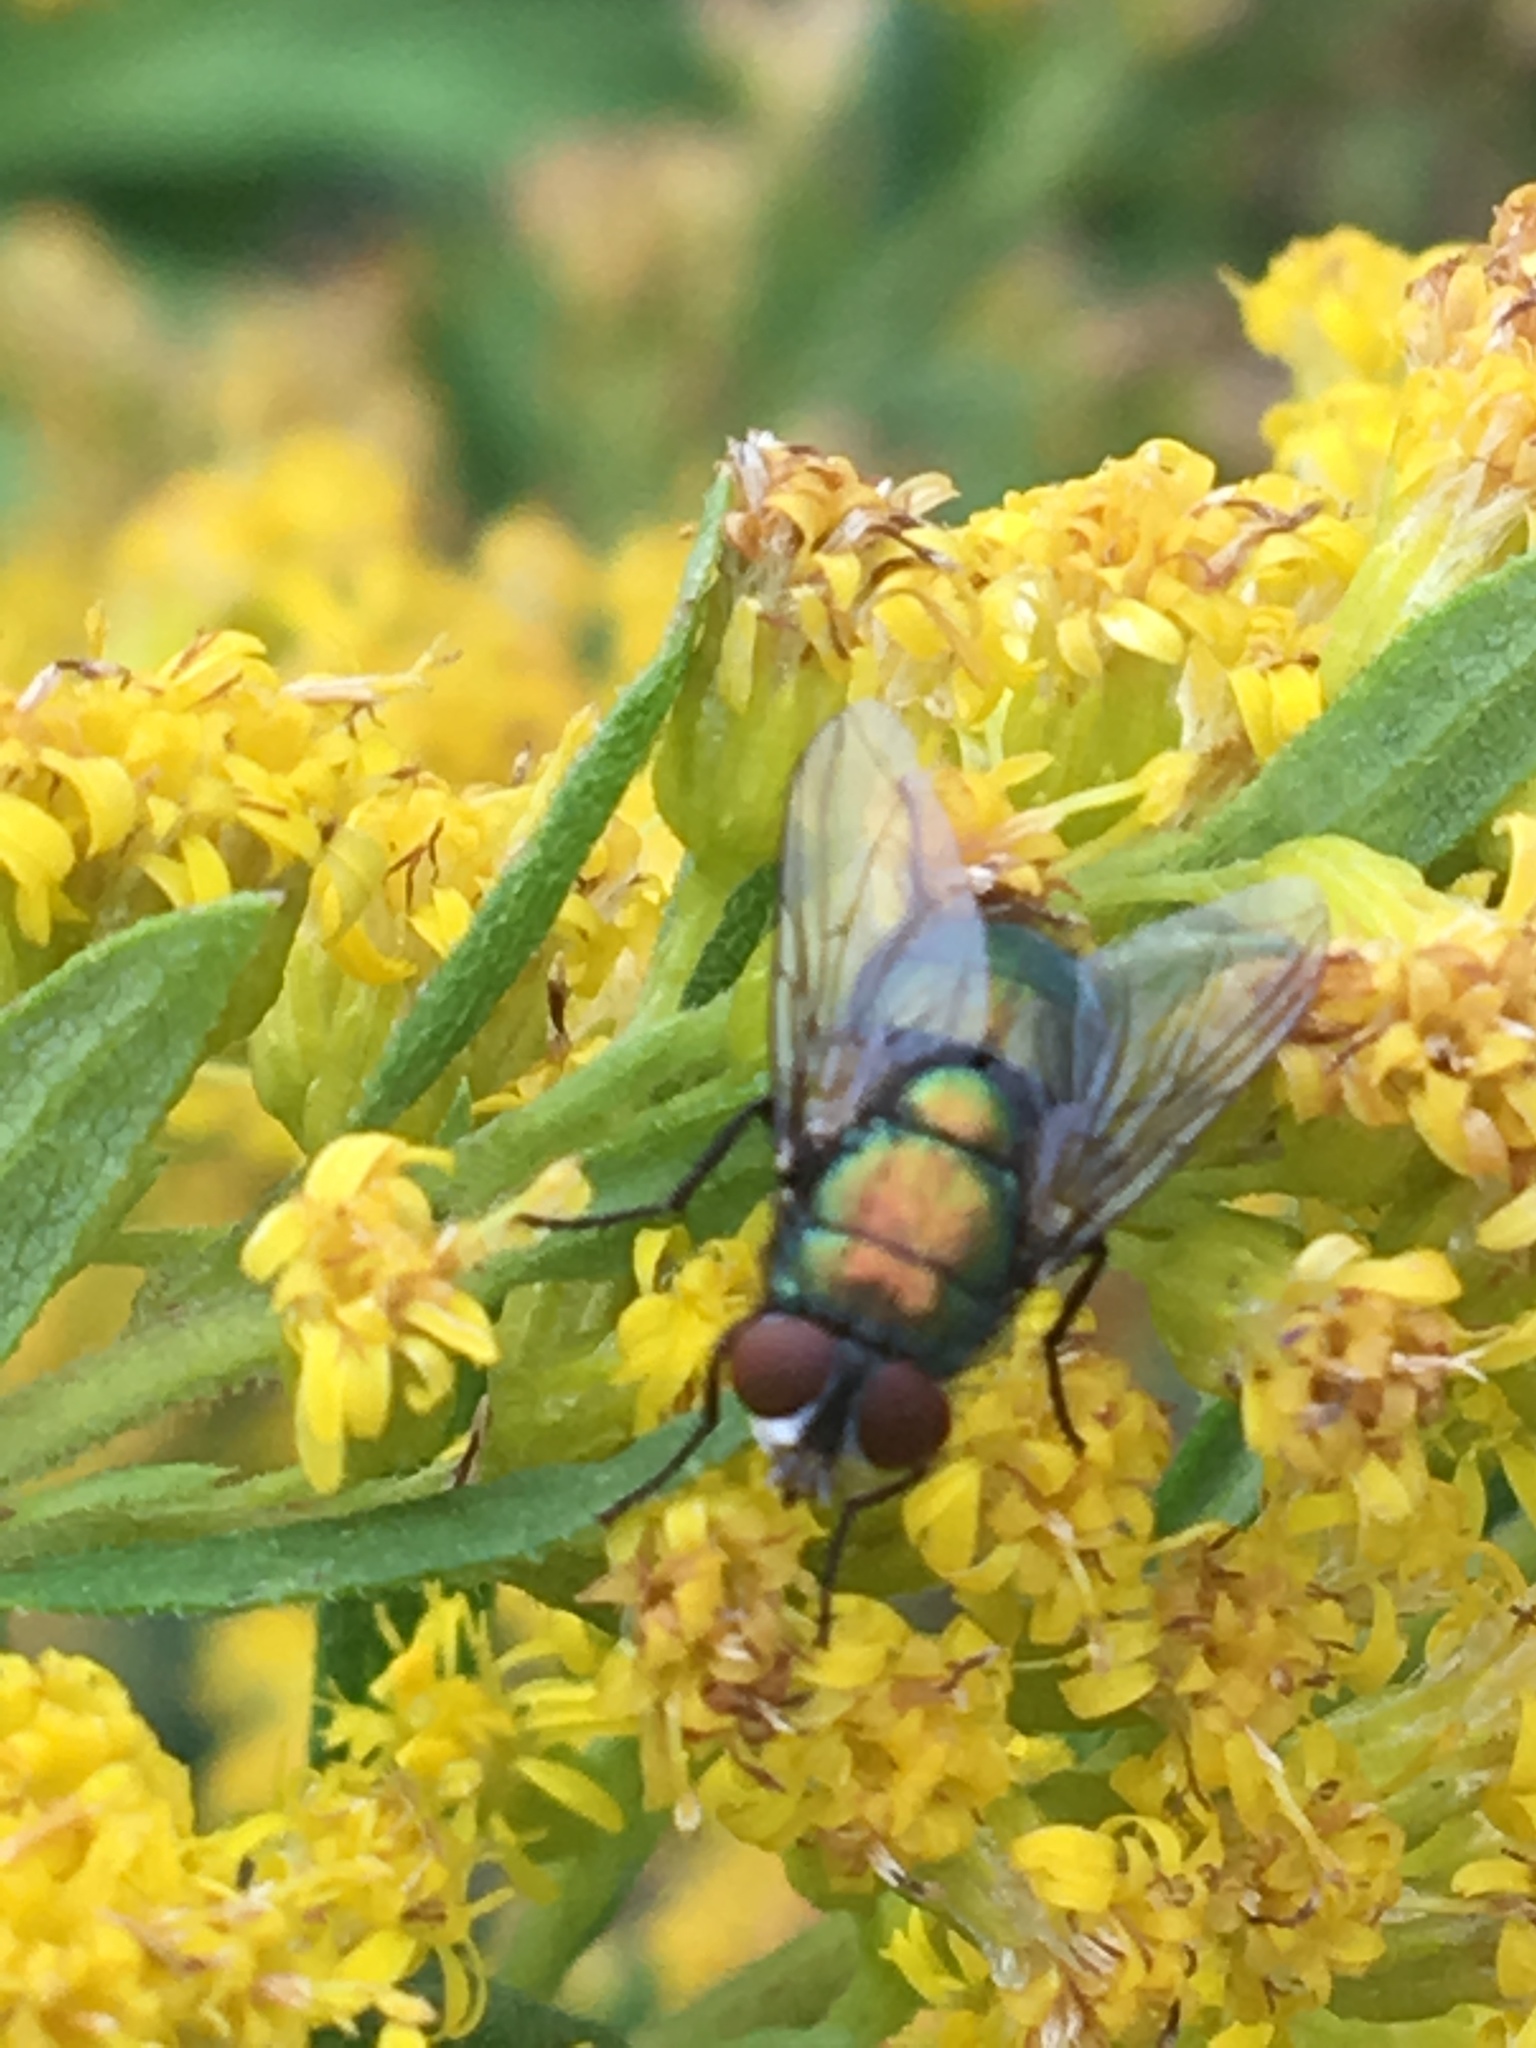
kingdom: Animalia
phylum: Arthropoda
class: Insecta
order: Diptera
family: Calliphoridae
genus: Lucilia
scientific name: Lucilia sericata
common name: Blow fly
